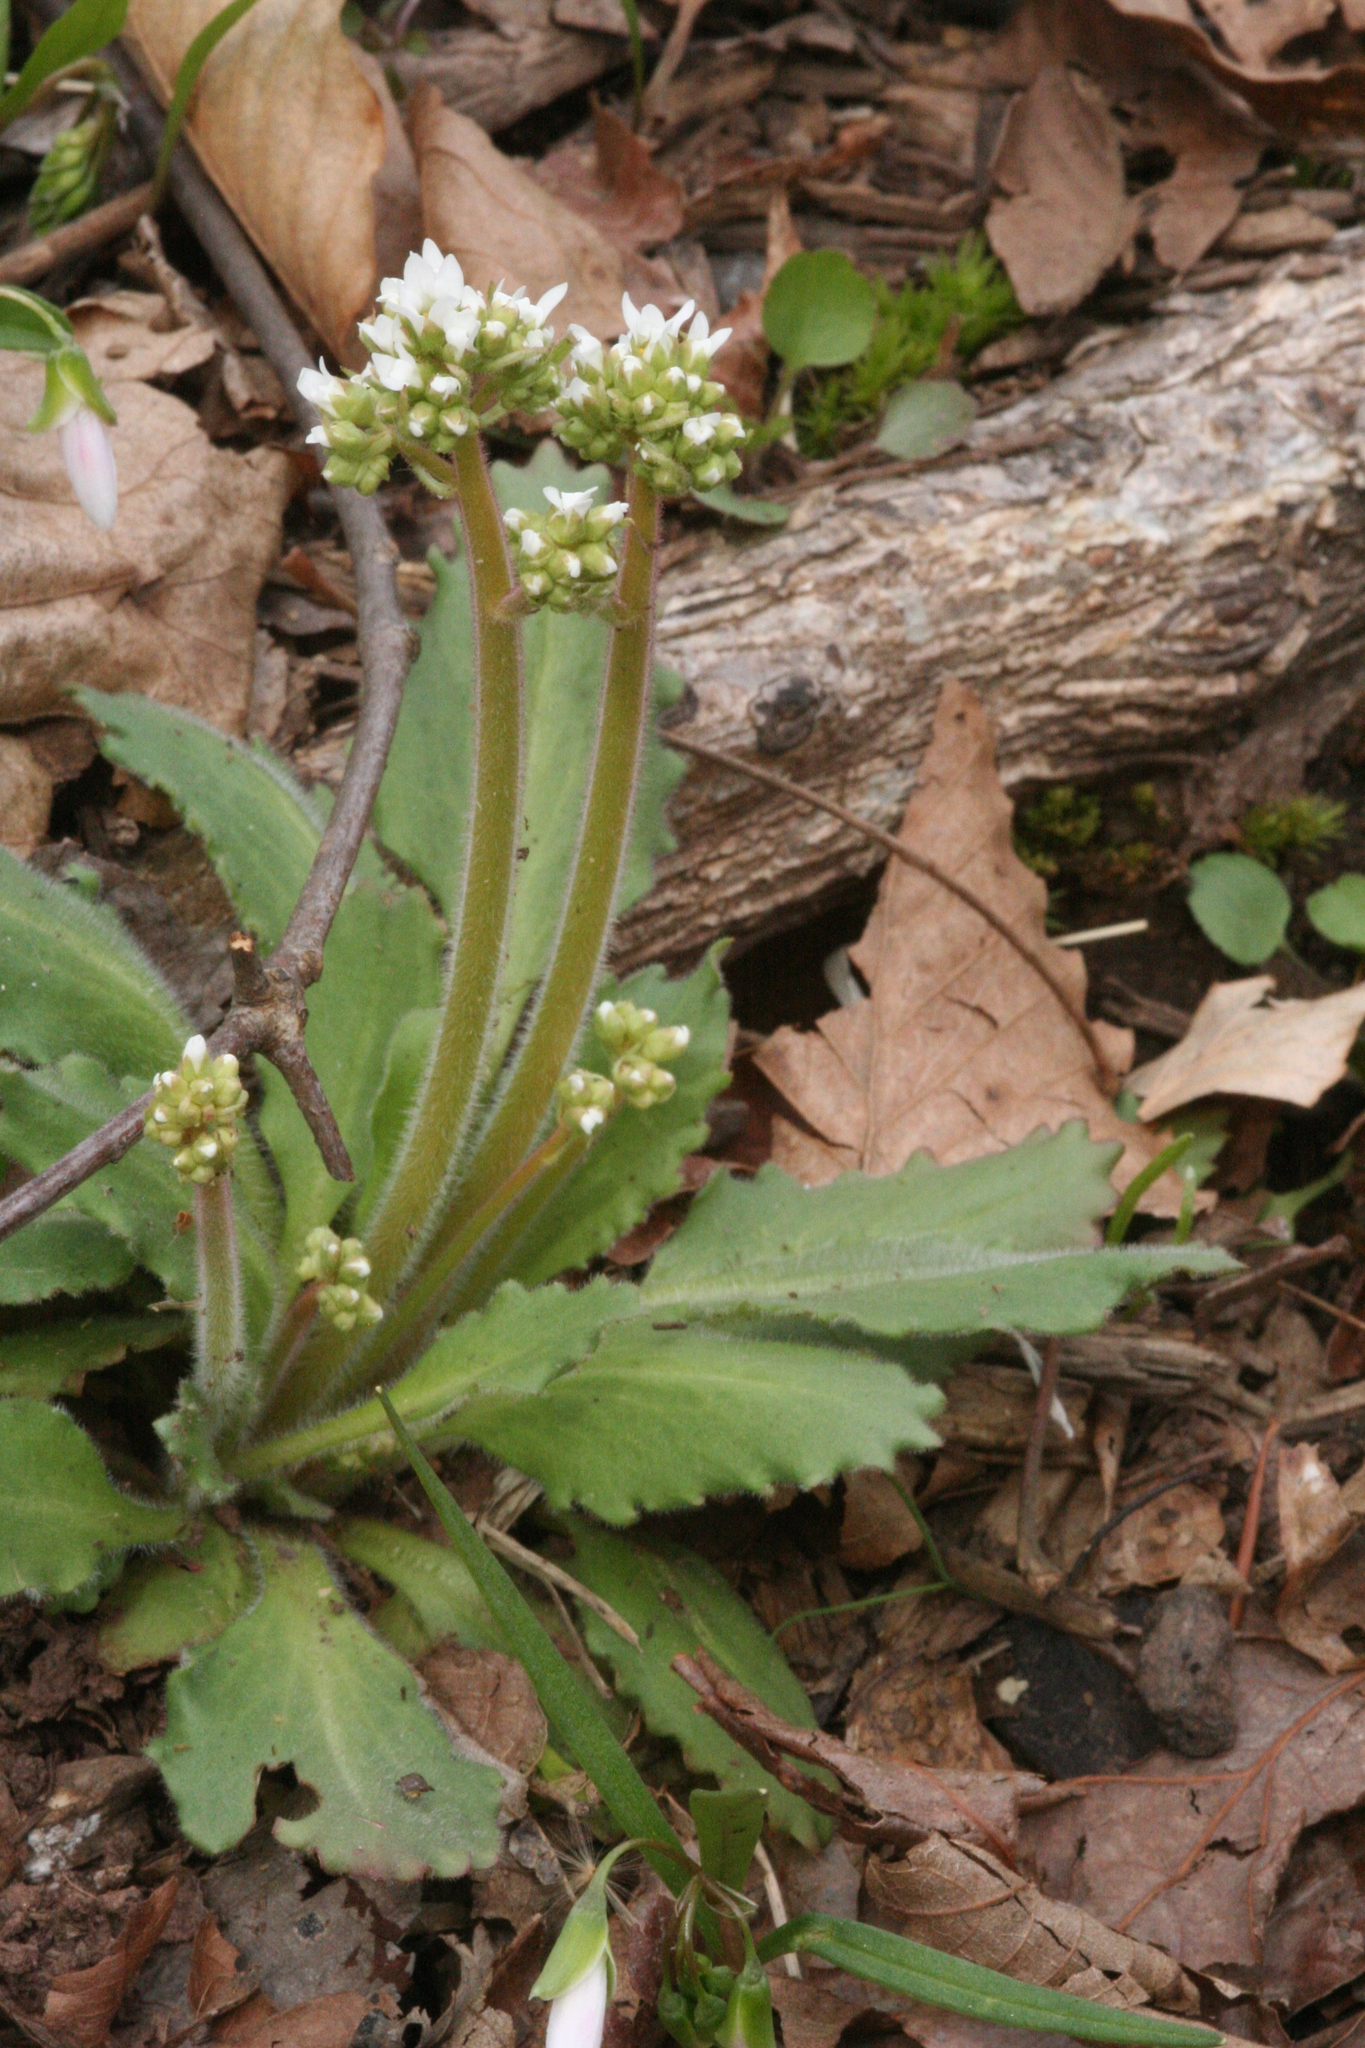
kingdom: Plantae
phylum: Tracheophyta
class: Magnoliopsida
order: Saxifragales
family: Saxifragaceae
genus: Micranthes
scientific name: Micranthes virginiensis
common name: Early saxifrage
